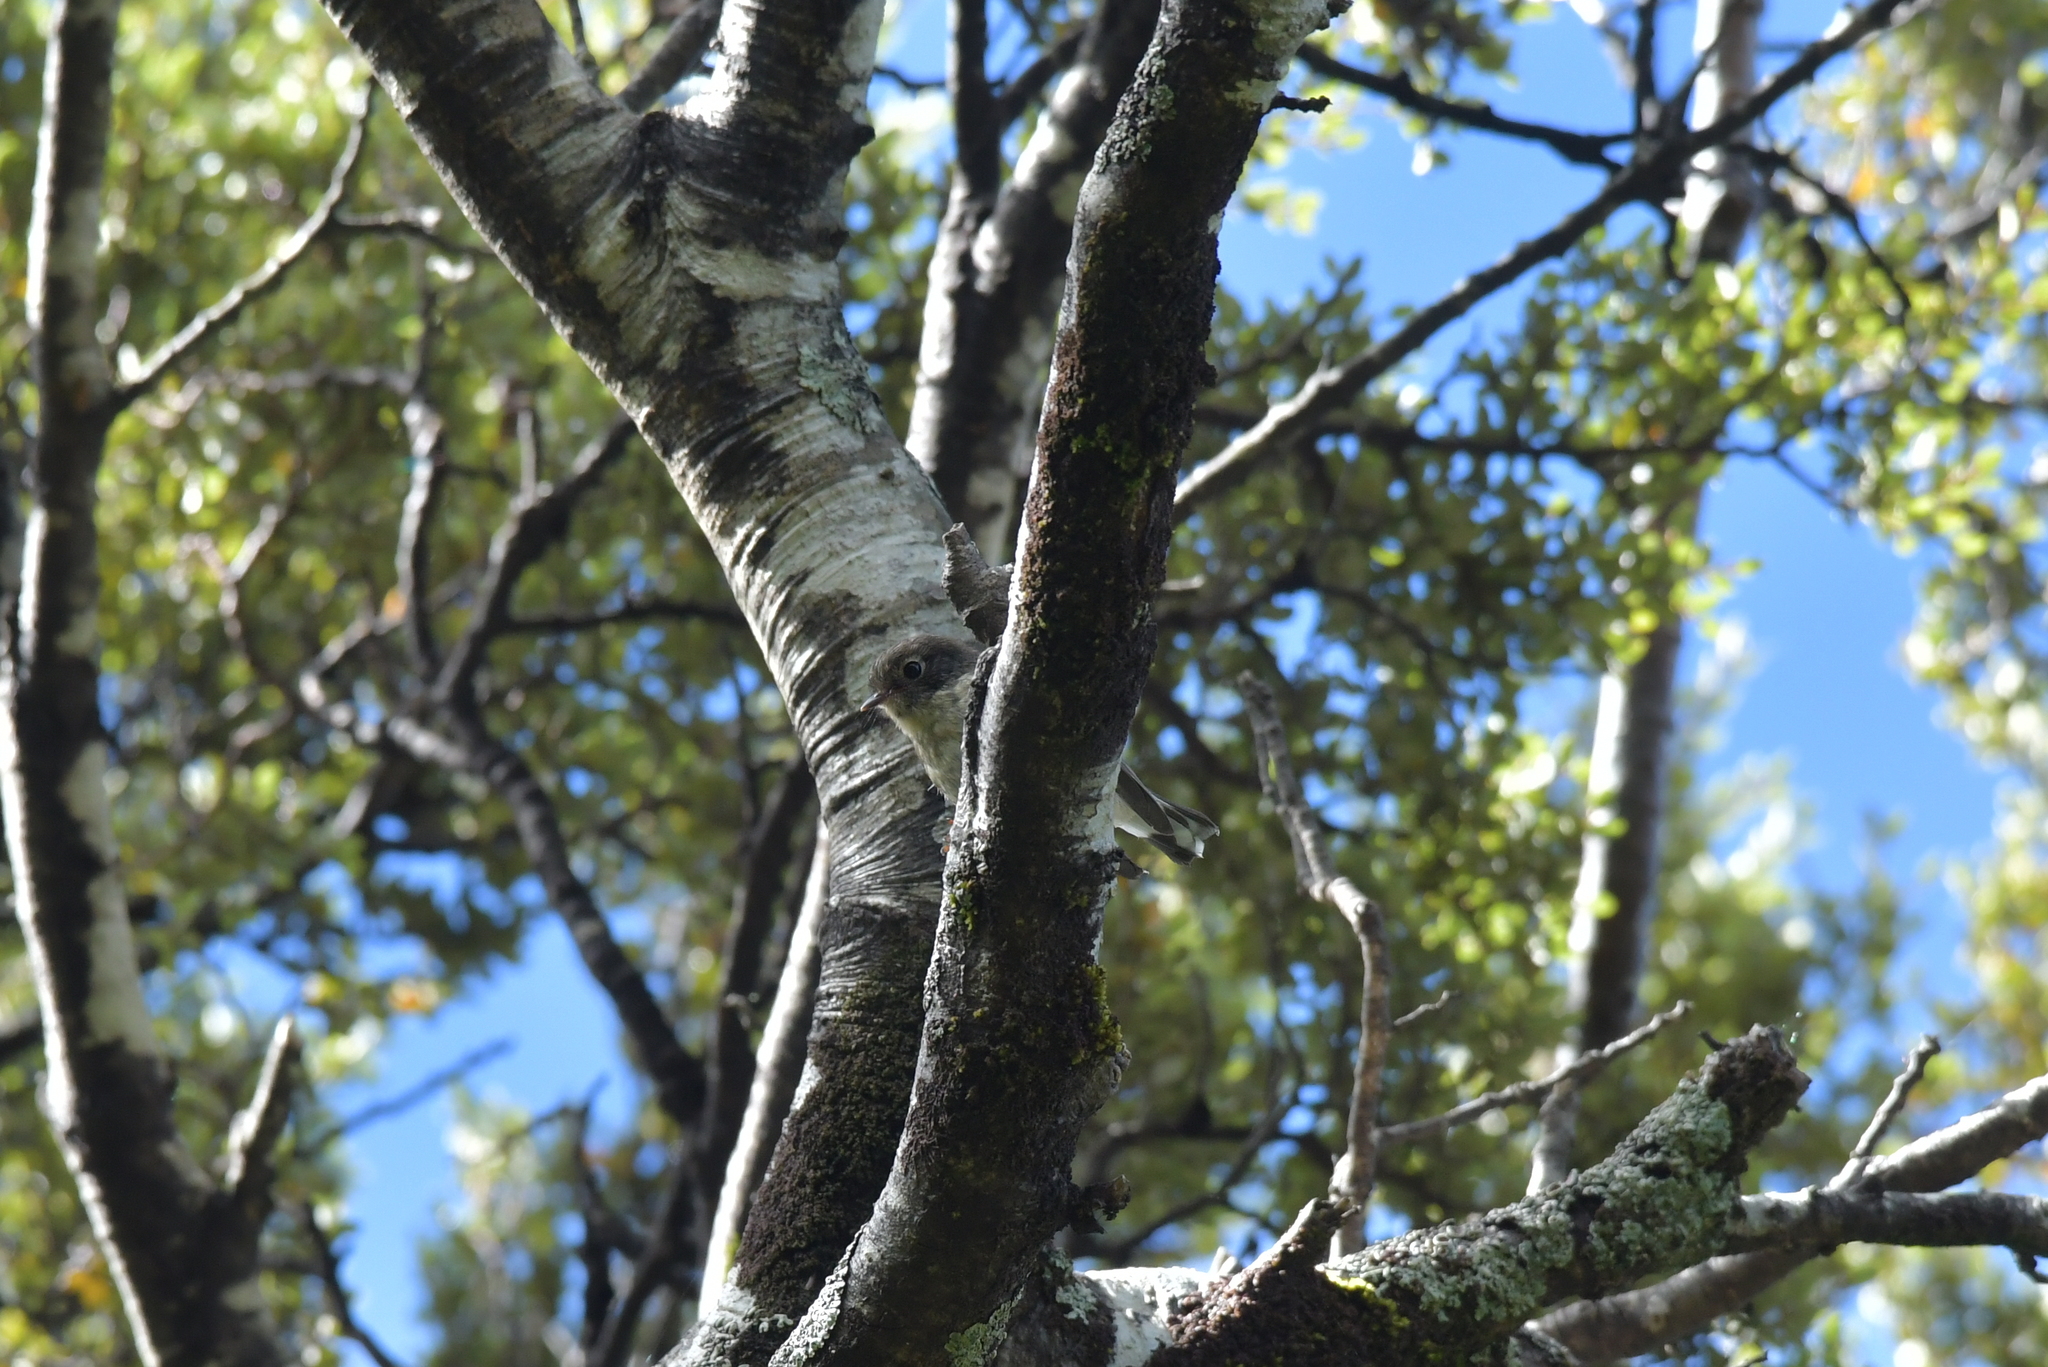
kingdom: Animalia
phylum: Chordata
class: Aves
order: Passeriformes
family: Petroicidae
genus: Petroica
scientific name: Petroica macrocephala
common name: Tomtit
